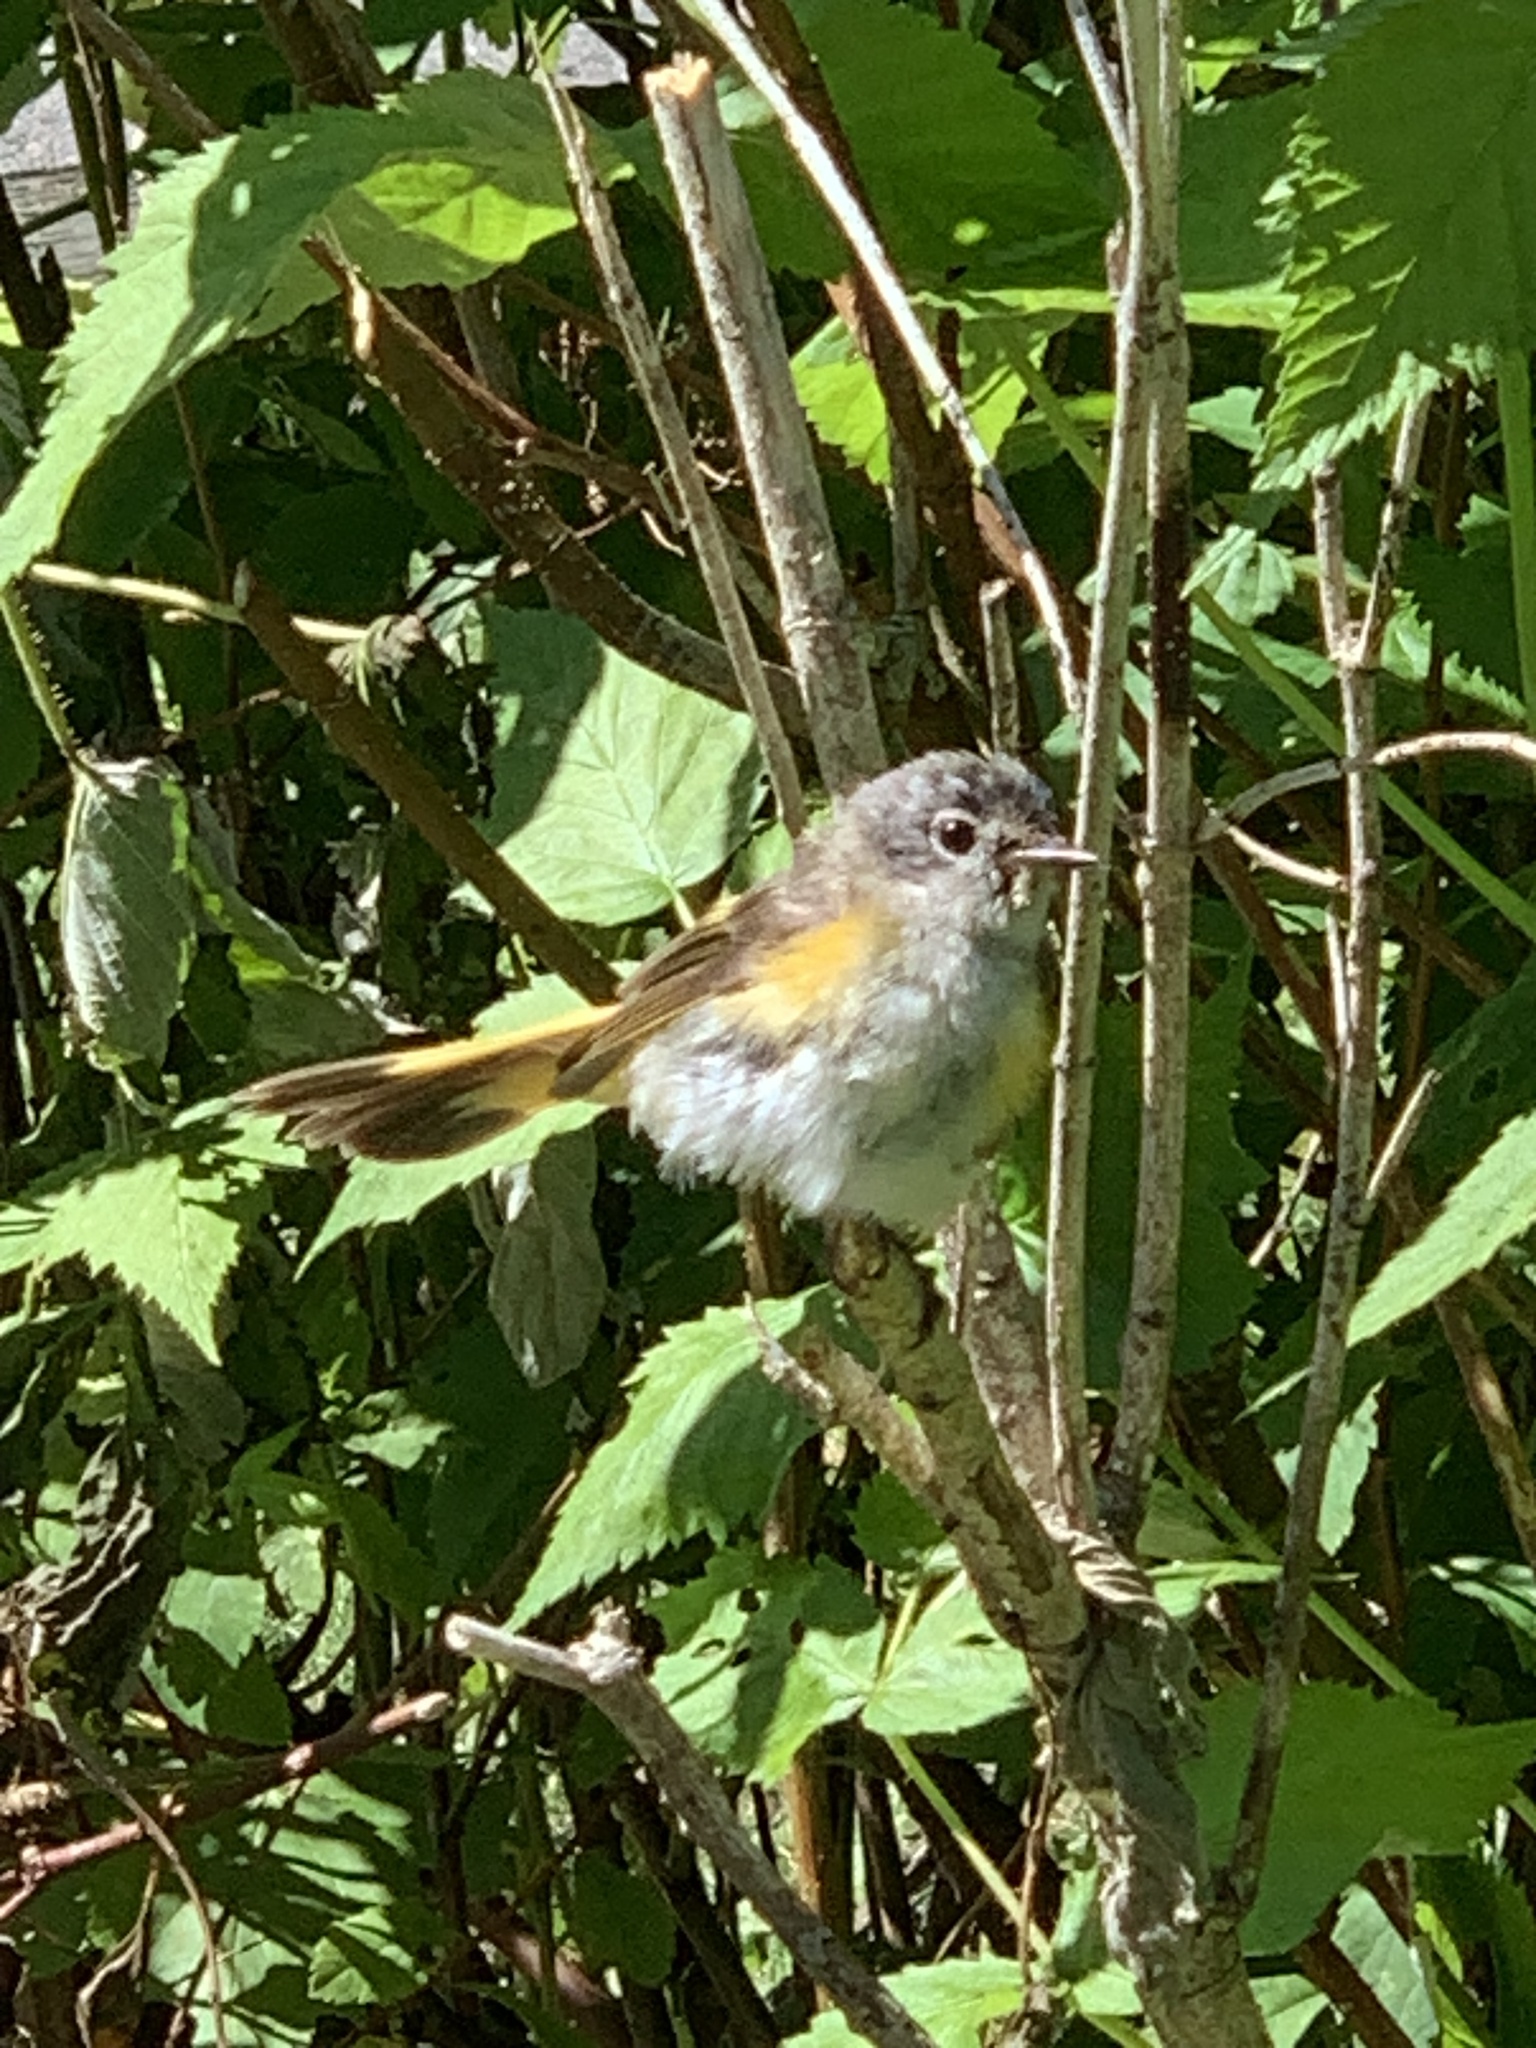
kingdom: Animalia
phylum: Chordata
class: Aves
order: Passeriformes
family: Parulidae
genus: Setophaga
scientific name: Setophaga ruticilla
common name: American redstart
